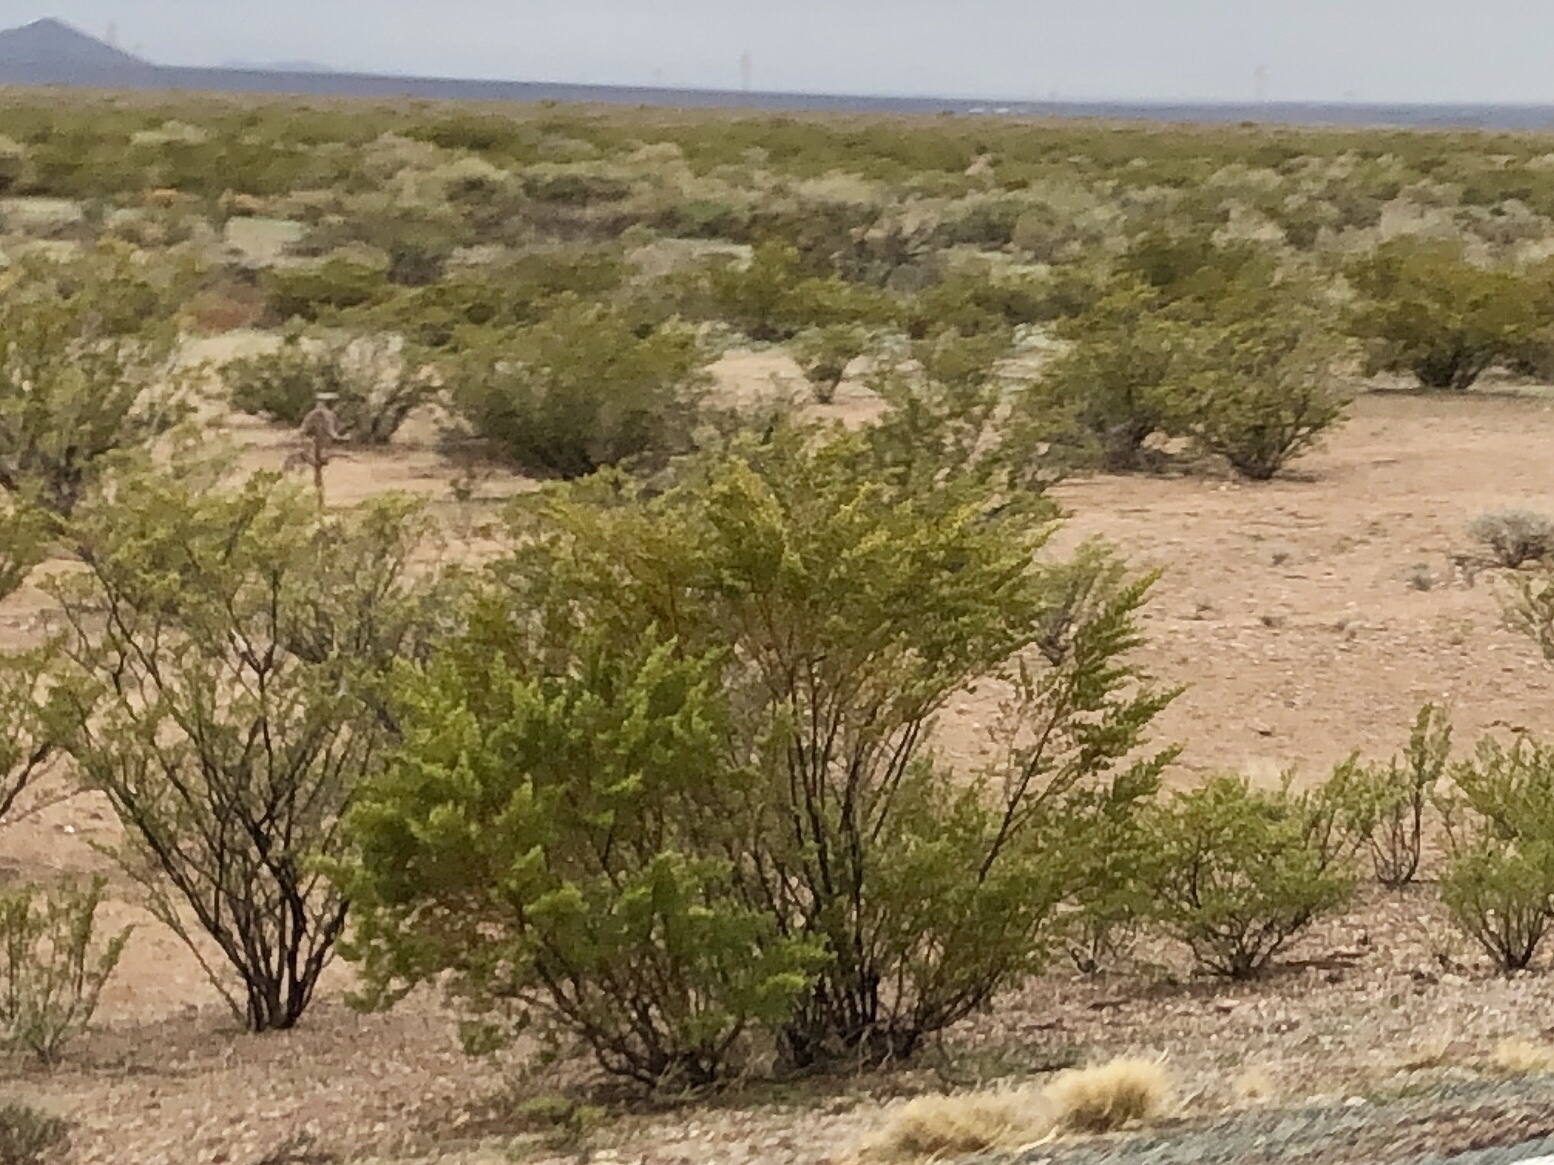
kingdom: Plantae
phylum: Tracheophyta
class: Magnoliopsida
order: Zygophyllales
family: Zygophyllaceae
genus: Larrea
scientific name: Larrea tridentata
